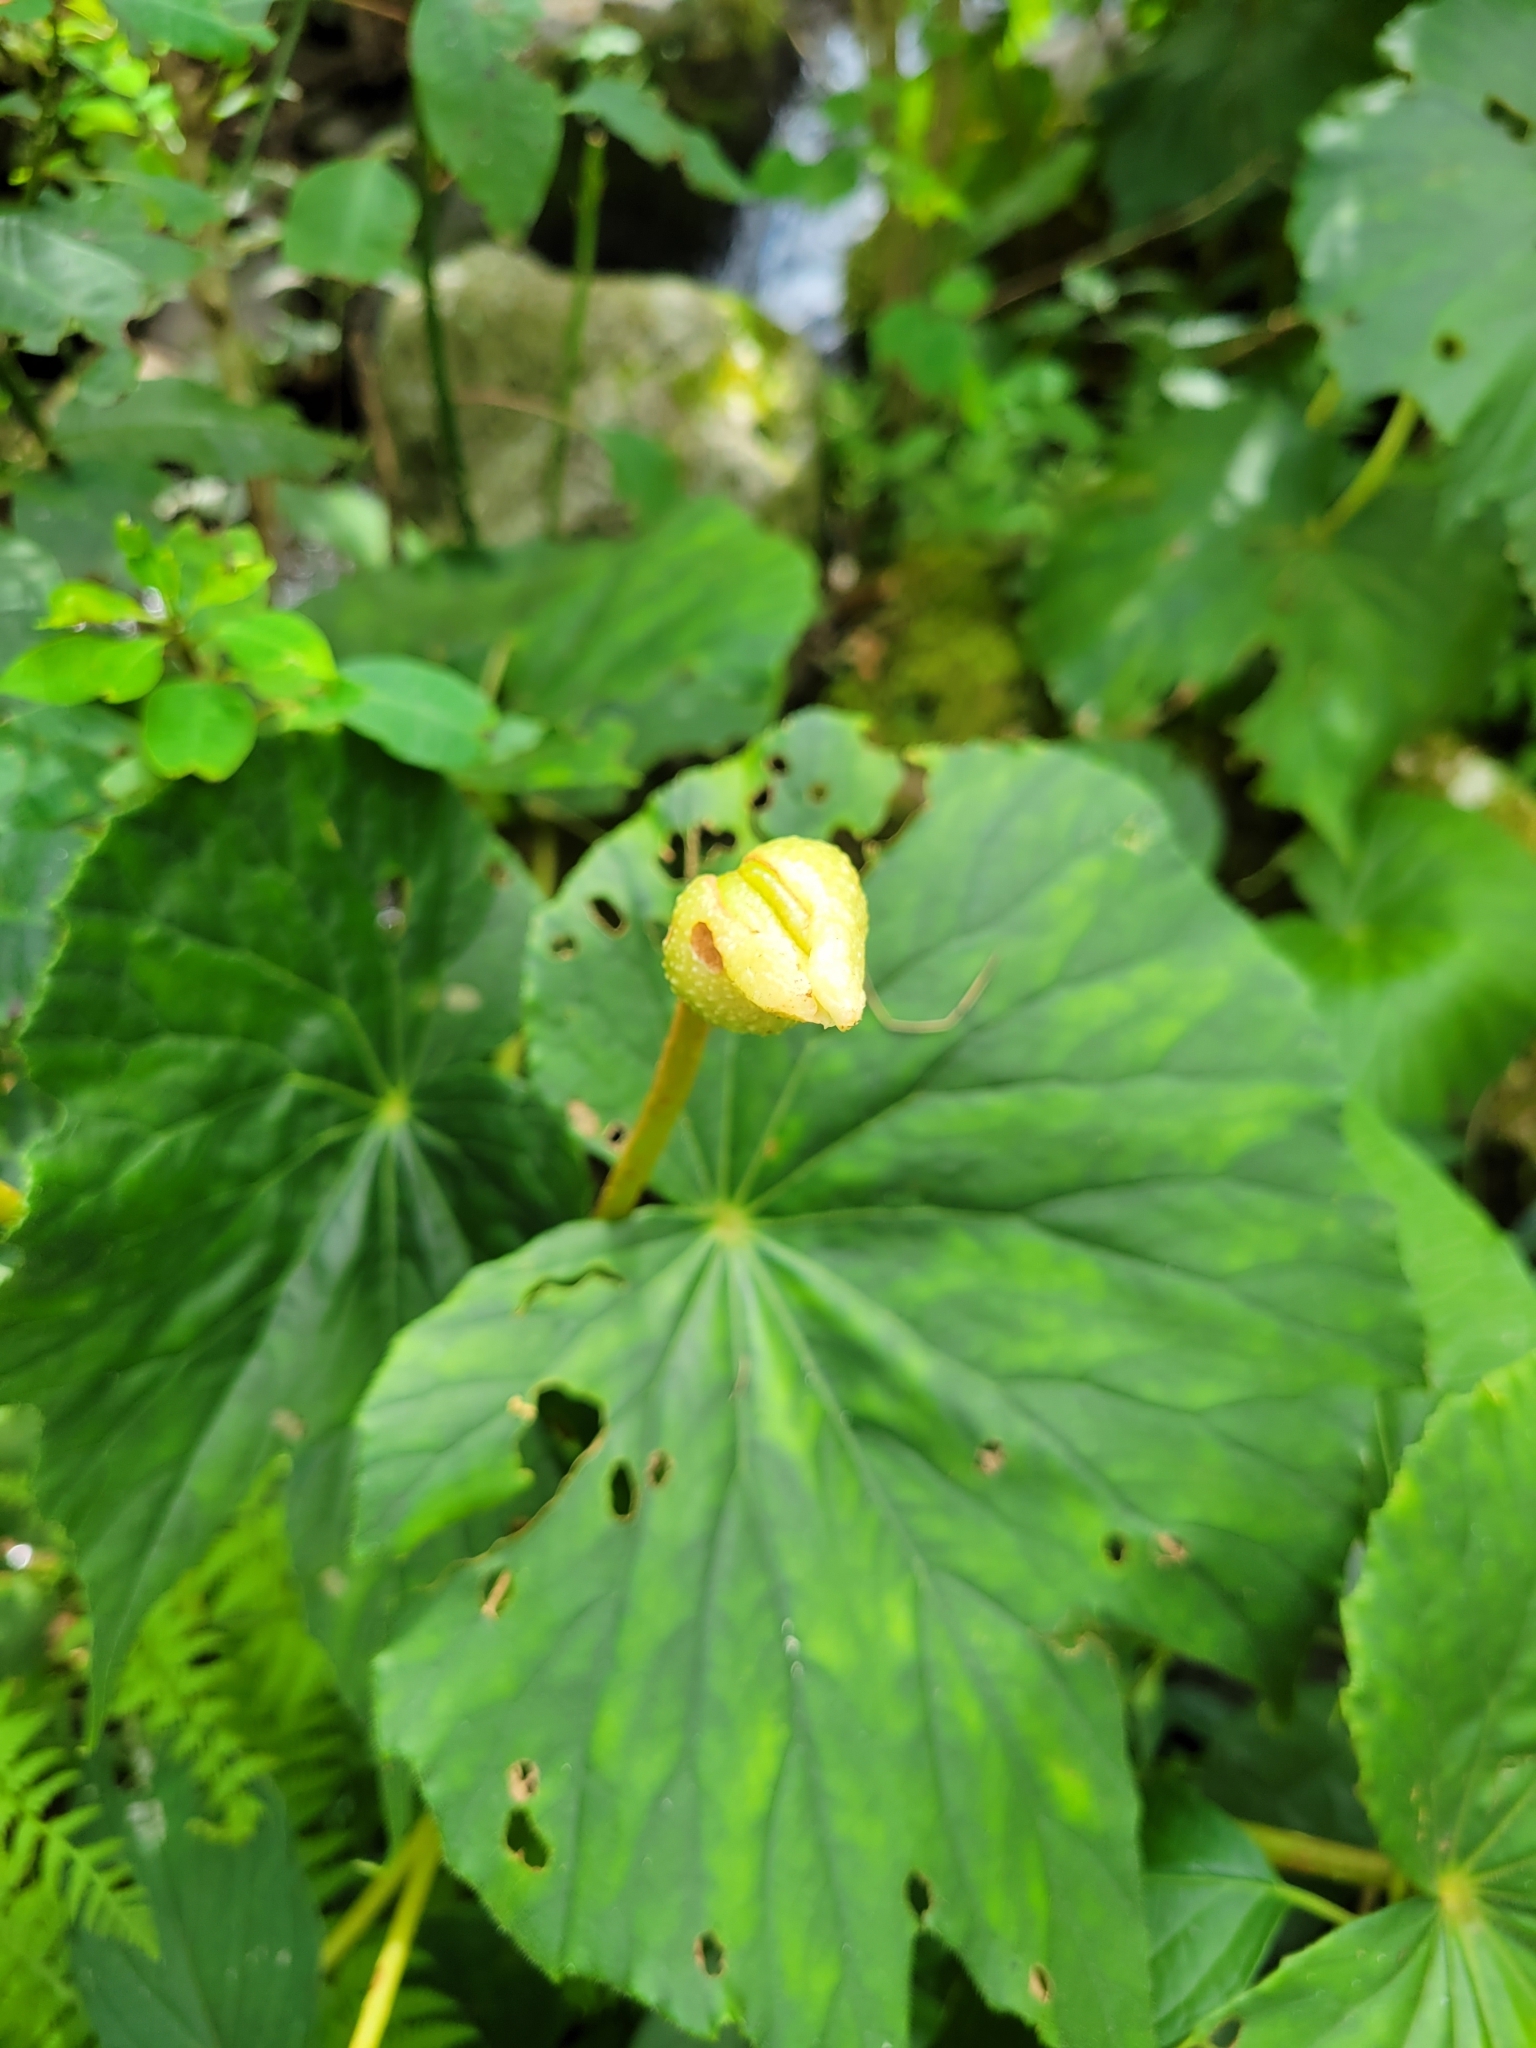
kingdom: Plantae
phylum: Tracheophyta
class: Magnoliopsida
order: Cucurbitales
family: Begoniaceae
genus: Begonia
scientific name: Begonia involucrata
